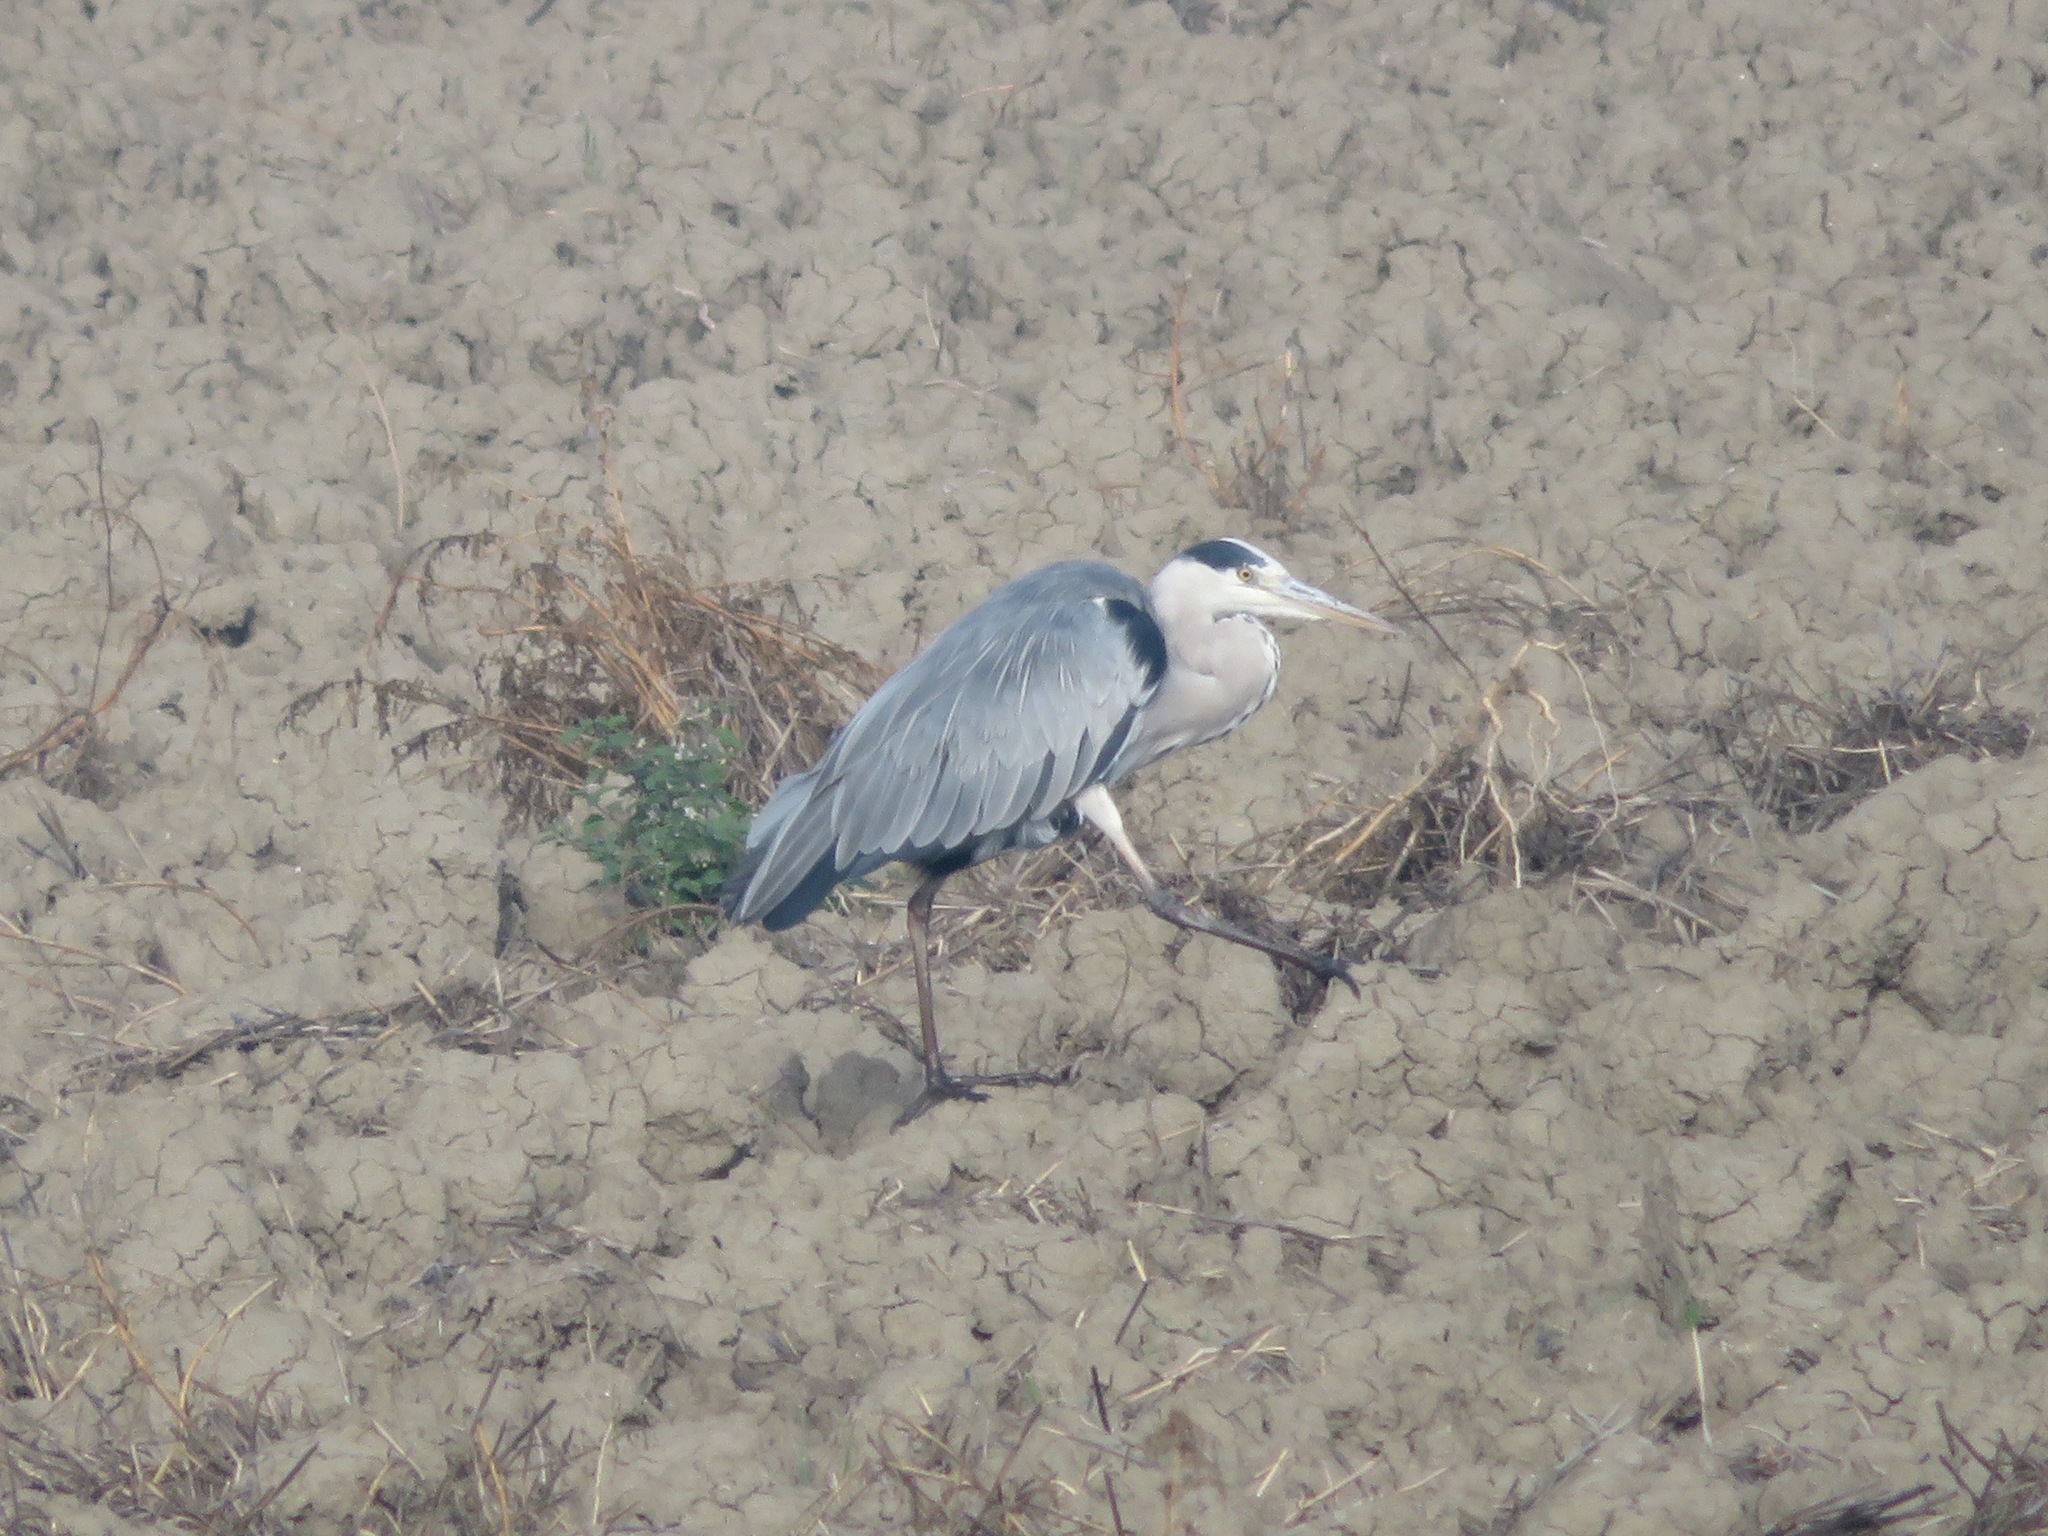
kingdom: Animalia
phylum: Chordata
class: Aves
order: Pelecaniformes
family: Ardeidae
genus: Ardea
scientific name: Ardea cinerea
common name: Grey heron
